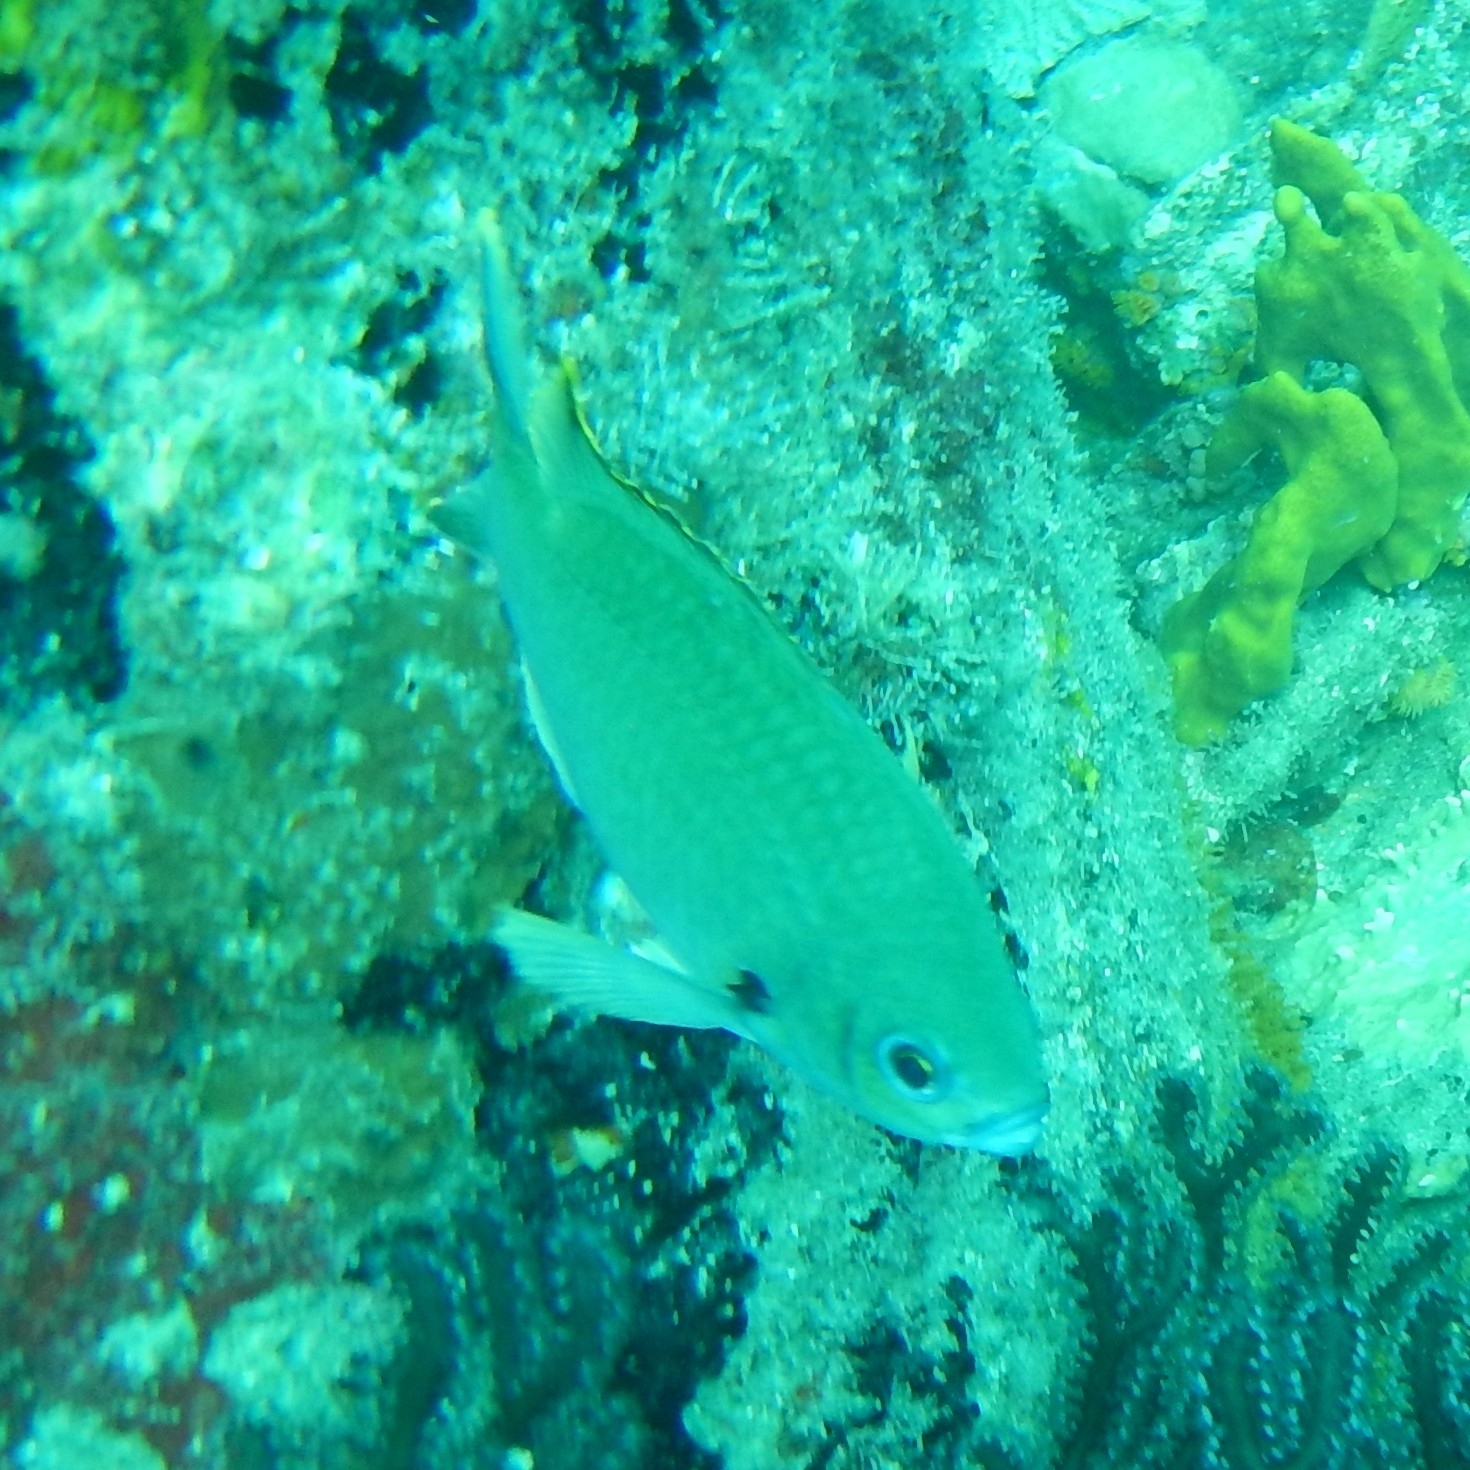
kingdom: Animalia
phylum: Chordata
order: Perciformes
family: Pomacentridae
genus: Chromis
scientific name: Chromis multilineata
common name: Brown chromis
